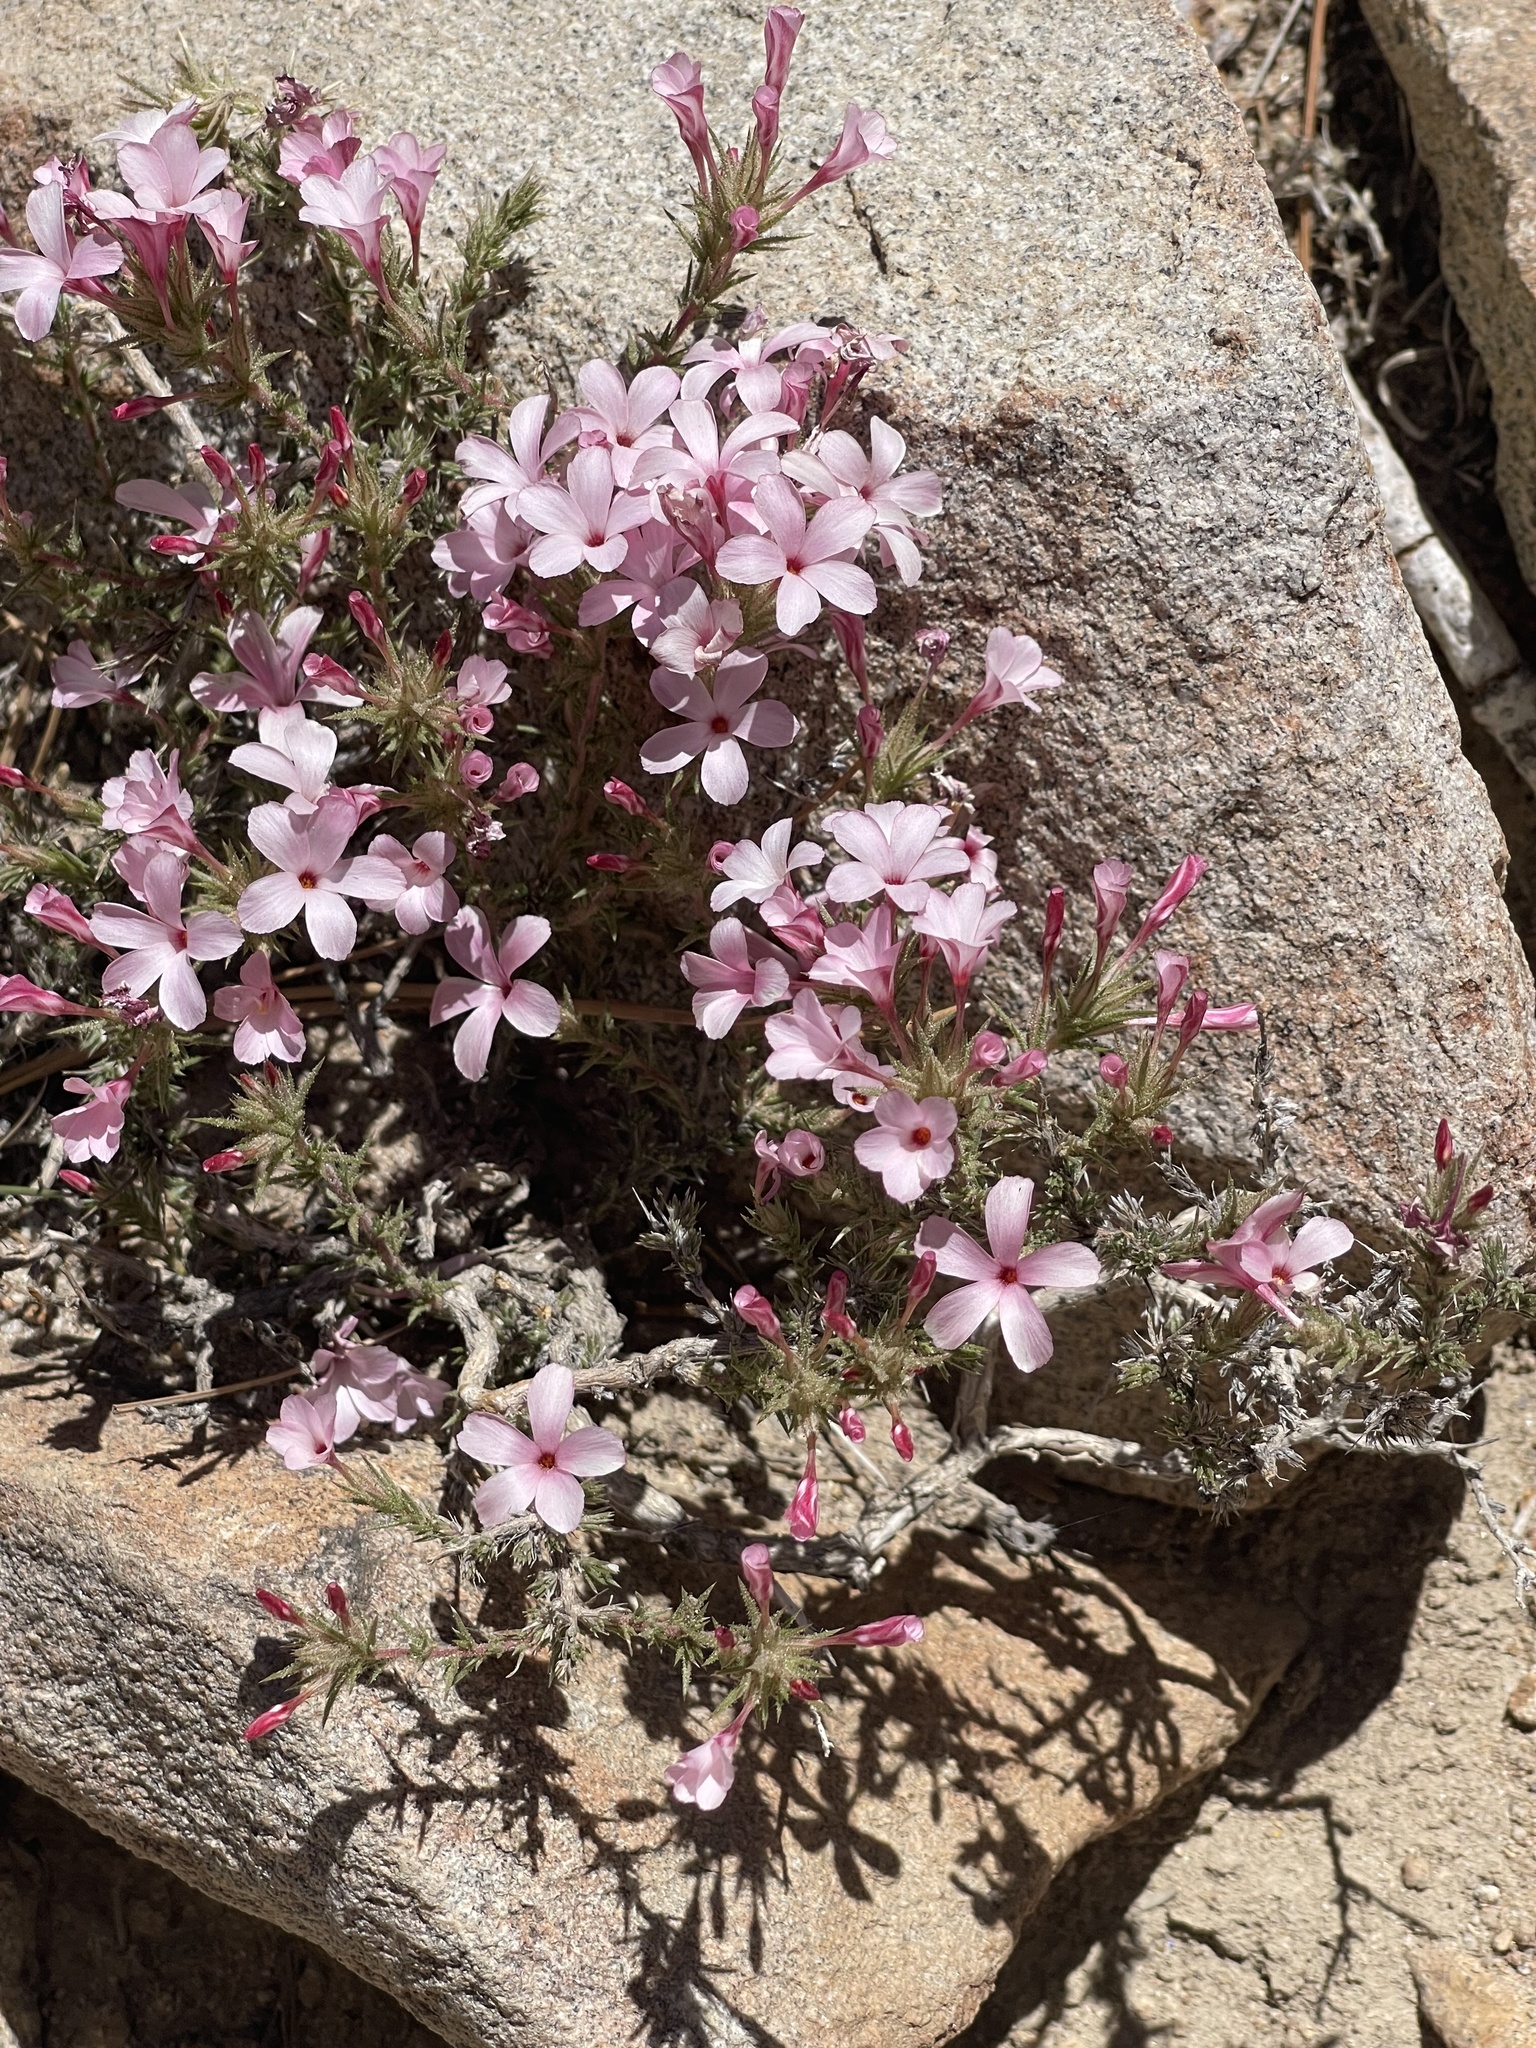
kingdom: Plantae
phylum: Tracheophyta
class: Magnoliopsida
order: Ericales
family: Polemoniaceae
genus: Linanthus
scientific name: Linanthus pungens
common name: Granite prickly phlox
